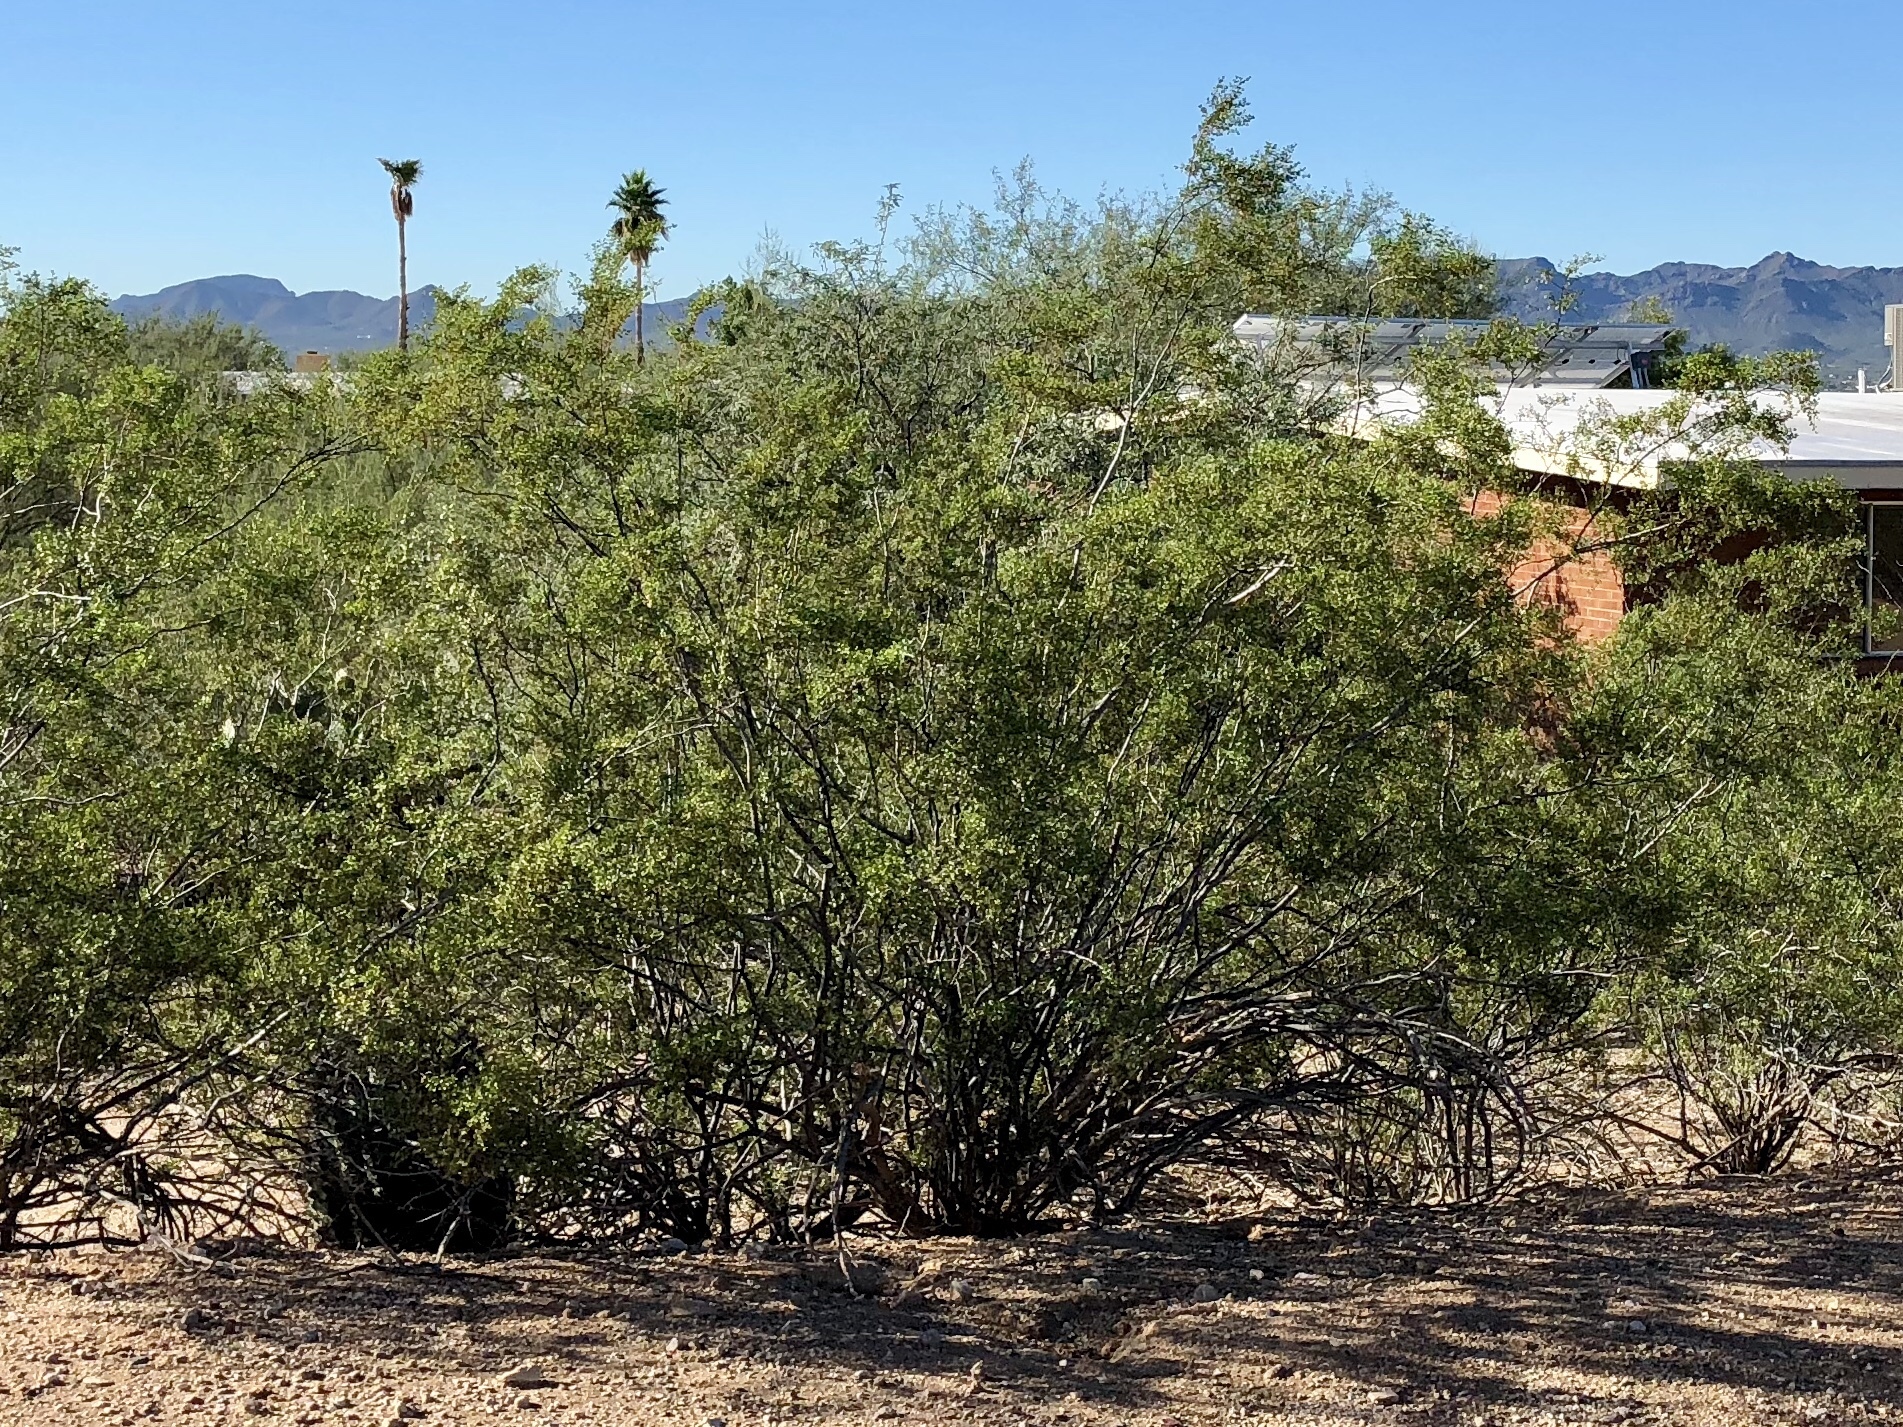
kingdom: Plantae
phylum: Tracheophyta
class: Magnoliopsida
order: Zygophyllales
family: Zygophyllaceae
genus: Larrea
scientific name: Larrea tridentata
